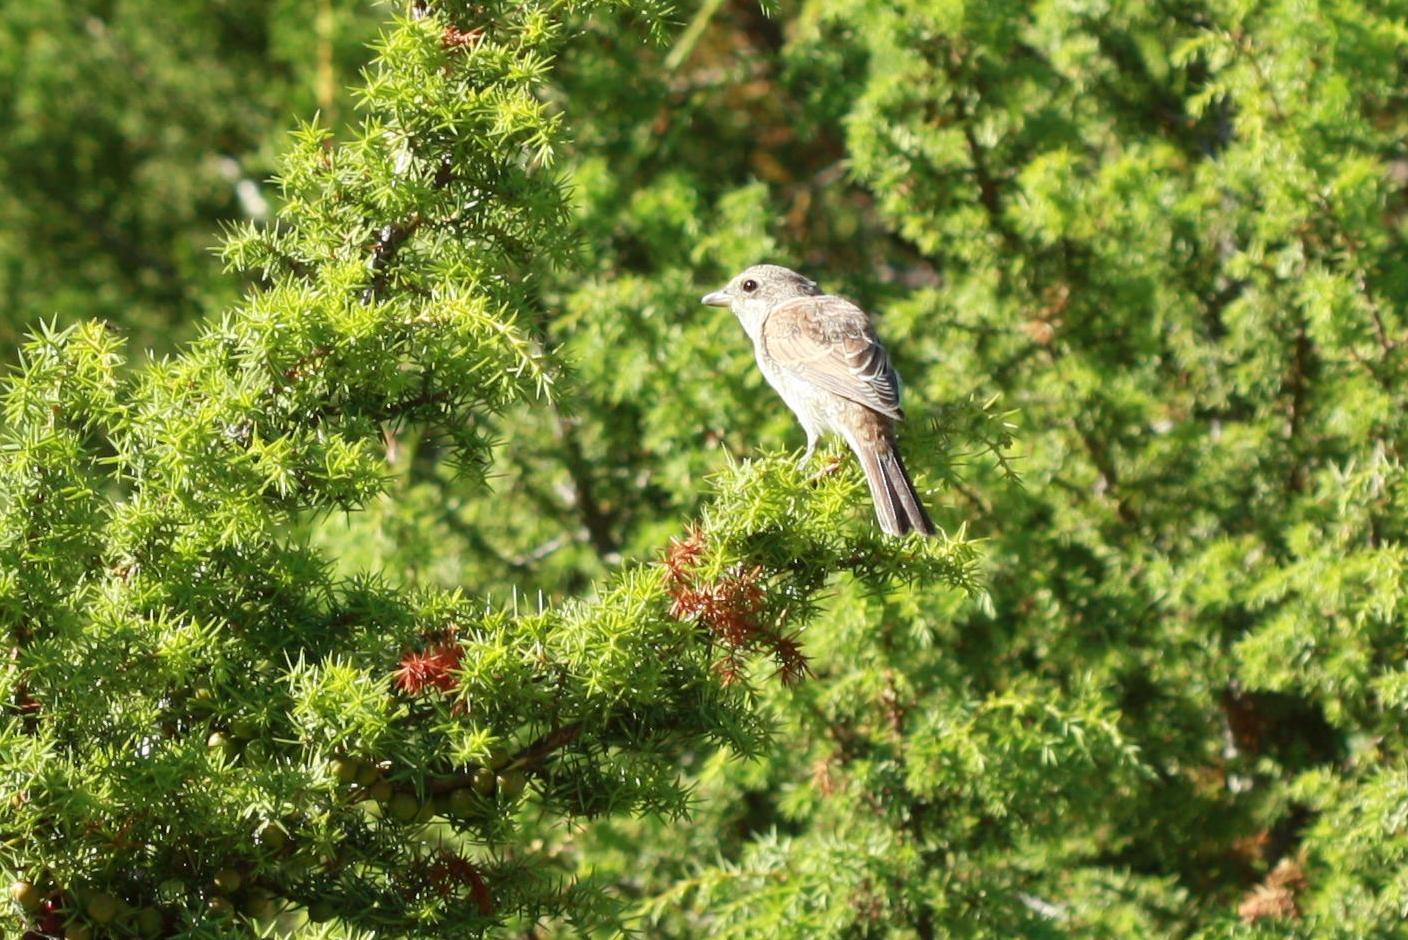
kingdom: Animalia
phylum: Chordata
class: Aves
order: Passeriformes
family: Laniidae
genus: Lanius
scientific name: Lanius collurio
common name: Red-backed shrike
